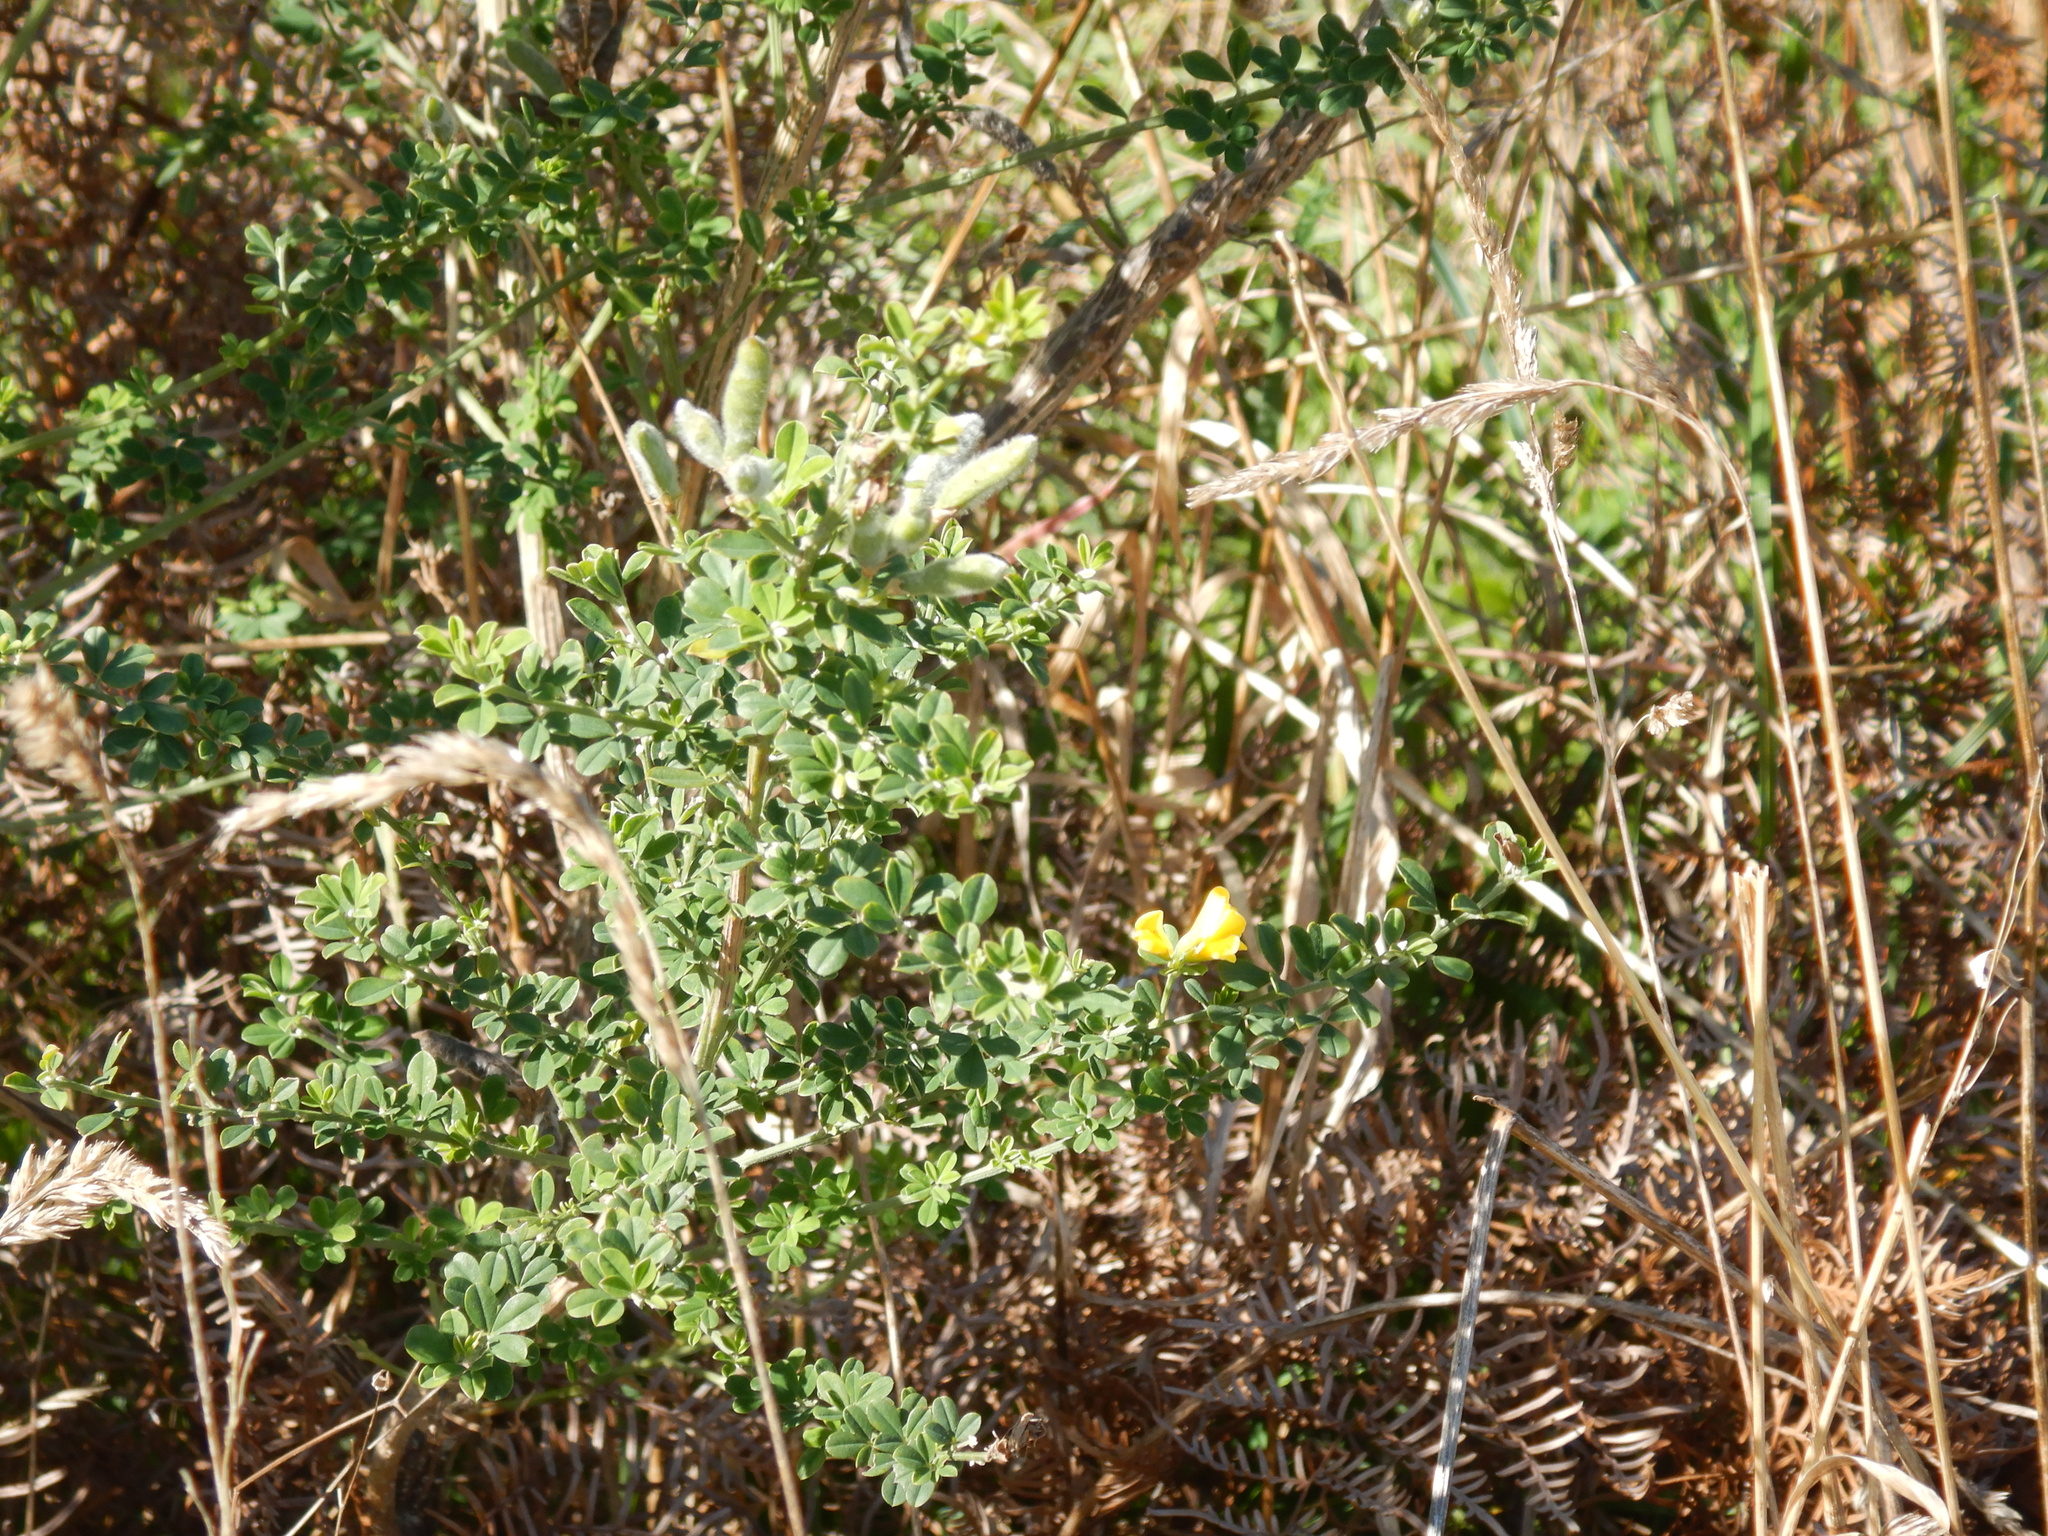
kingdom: Plantae
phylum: Tracheophyta
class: Magnoliopsida
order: Fabales
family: Fabaceae
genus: Genista
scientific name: Genista monspessulana
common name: Montpellier broom
